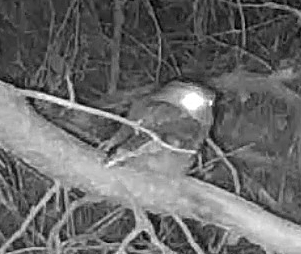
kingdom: Animalia
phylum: Chordata
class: Aves
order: Strigiformes
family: Strigidae
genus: Megascops
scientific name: Megascops asio
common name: Eastern screech-owl
